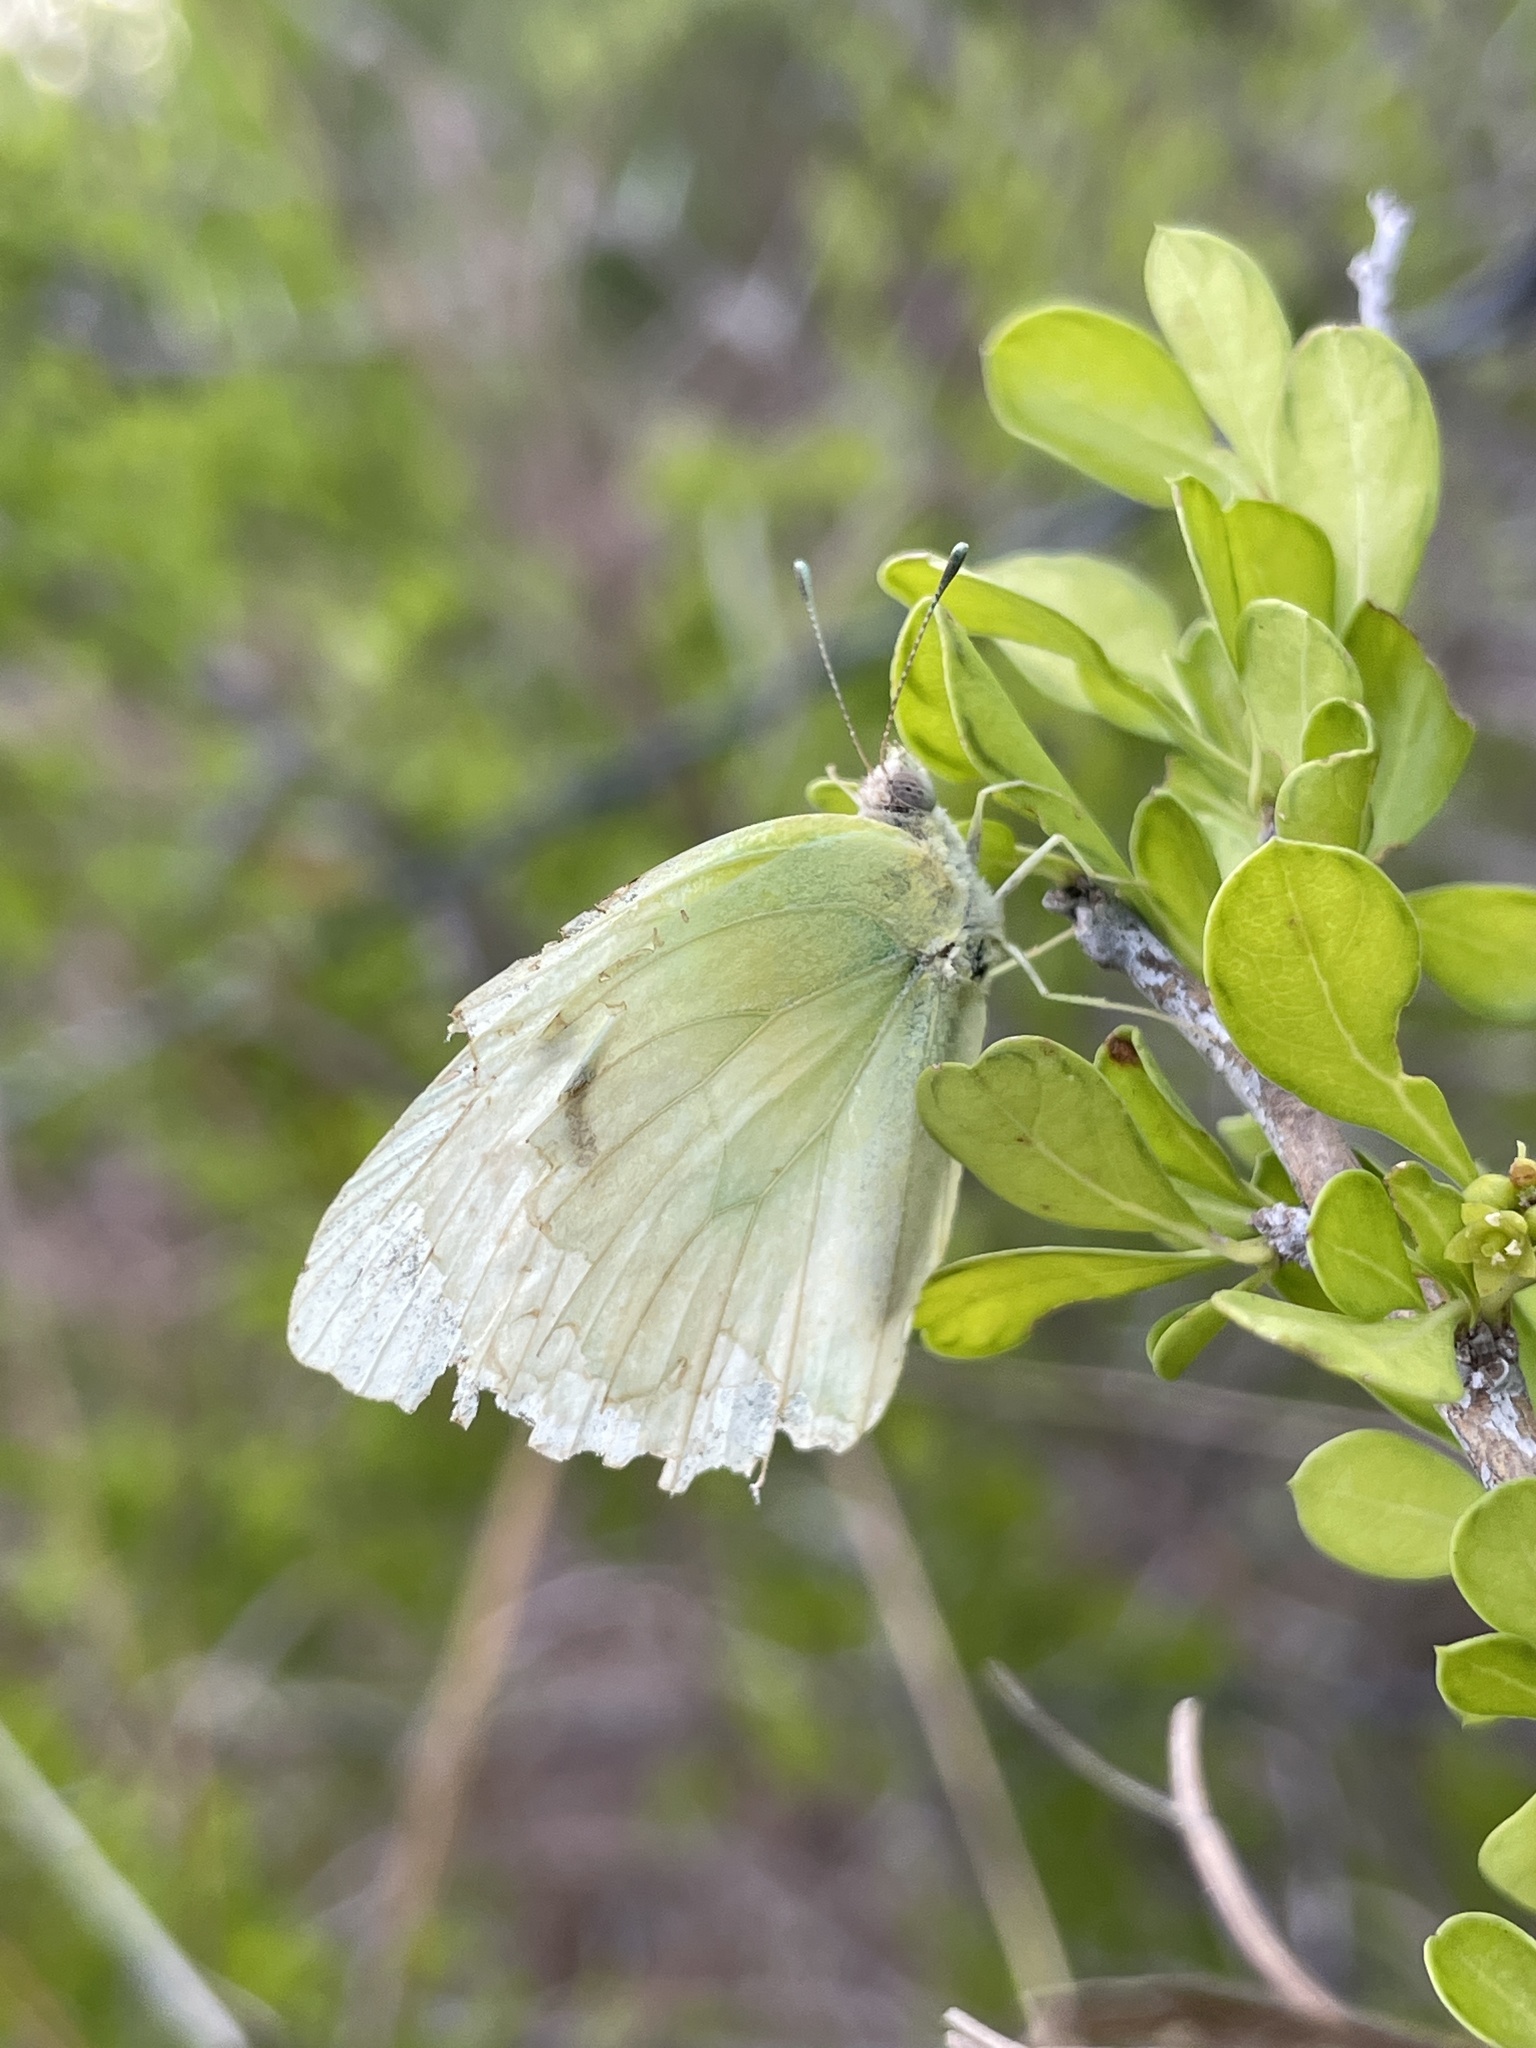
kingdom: Animalia
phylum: Arthropoda
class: Insecta
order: Lepidoptera
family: Pieridae
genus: Kricogonia
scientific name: Kricogonia lyside
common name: Guayacan sulphur,
